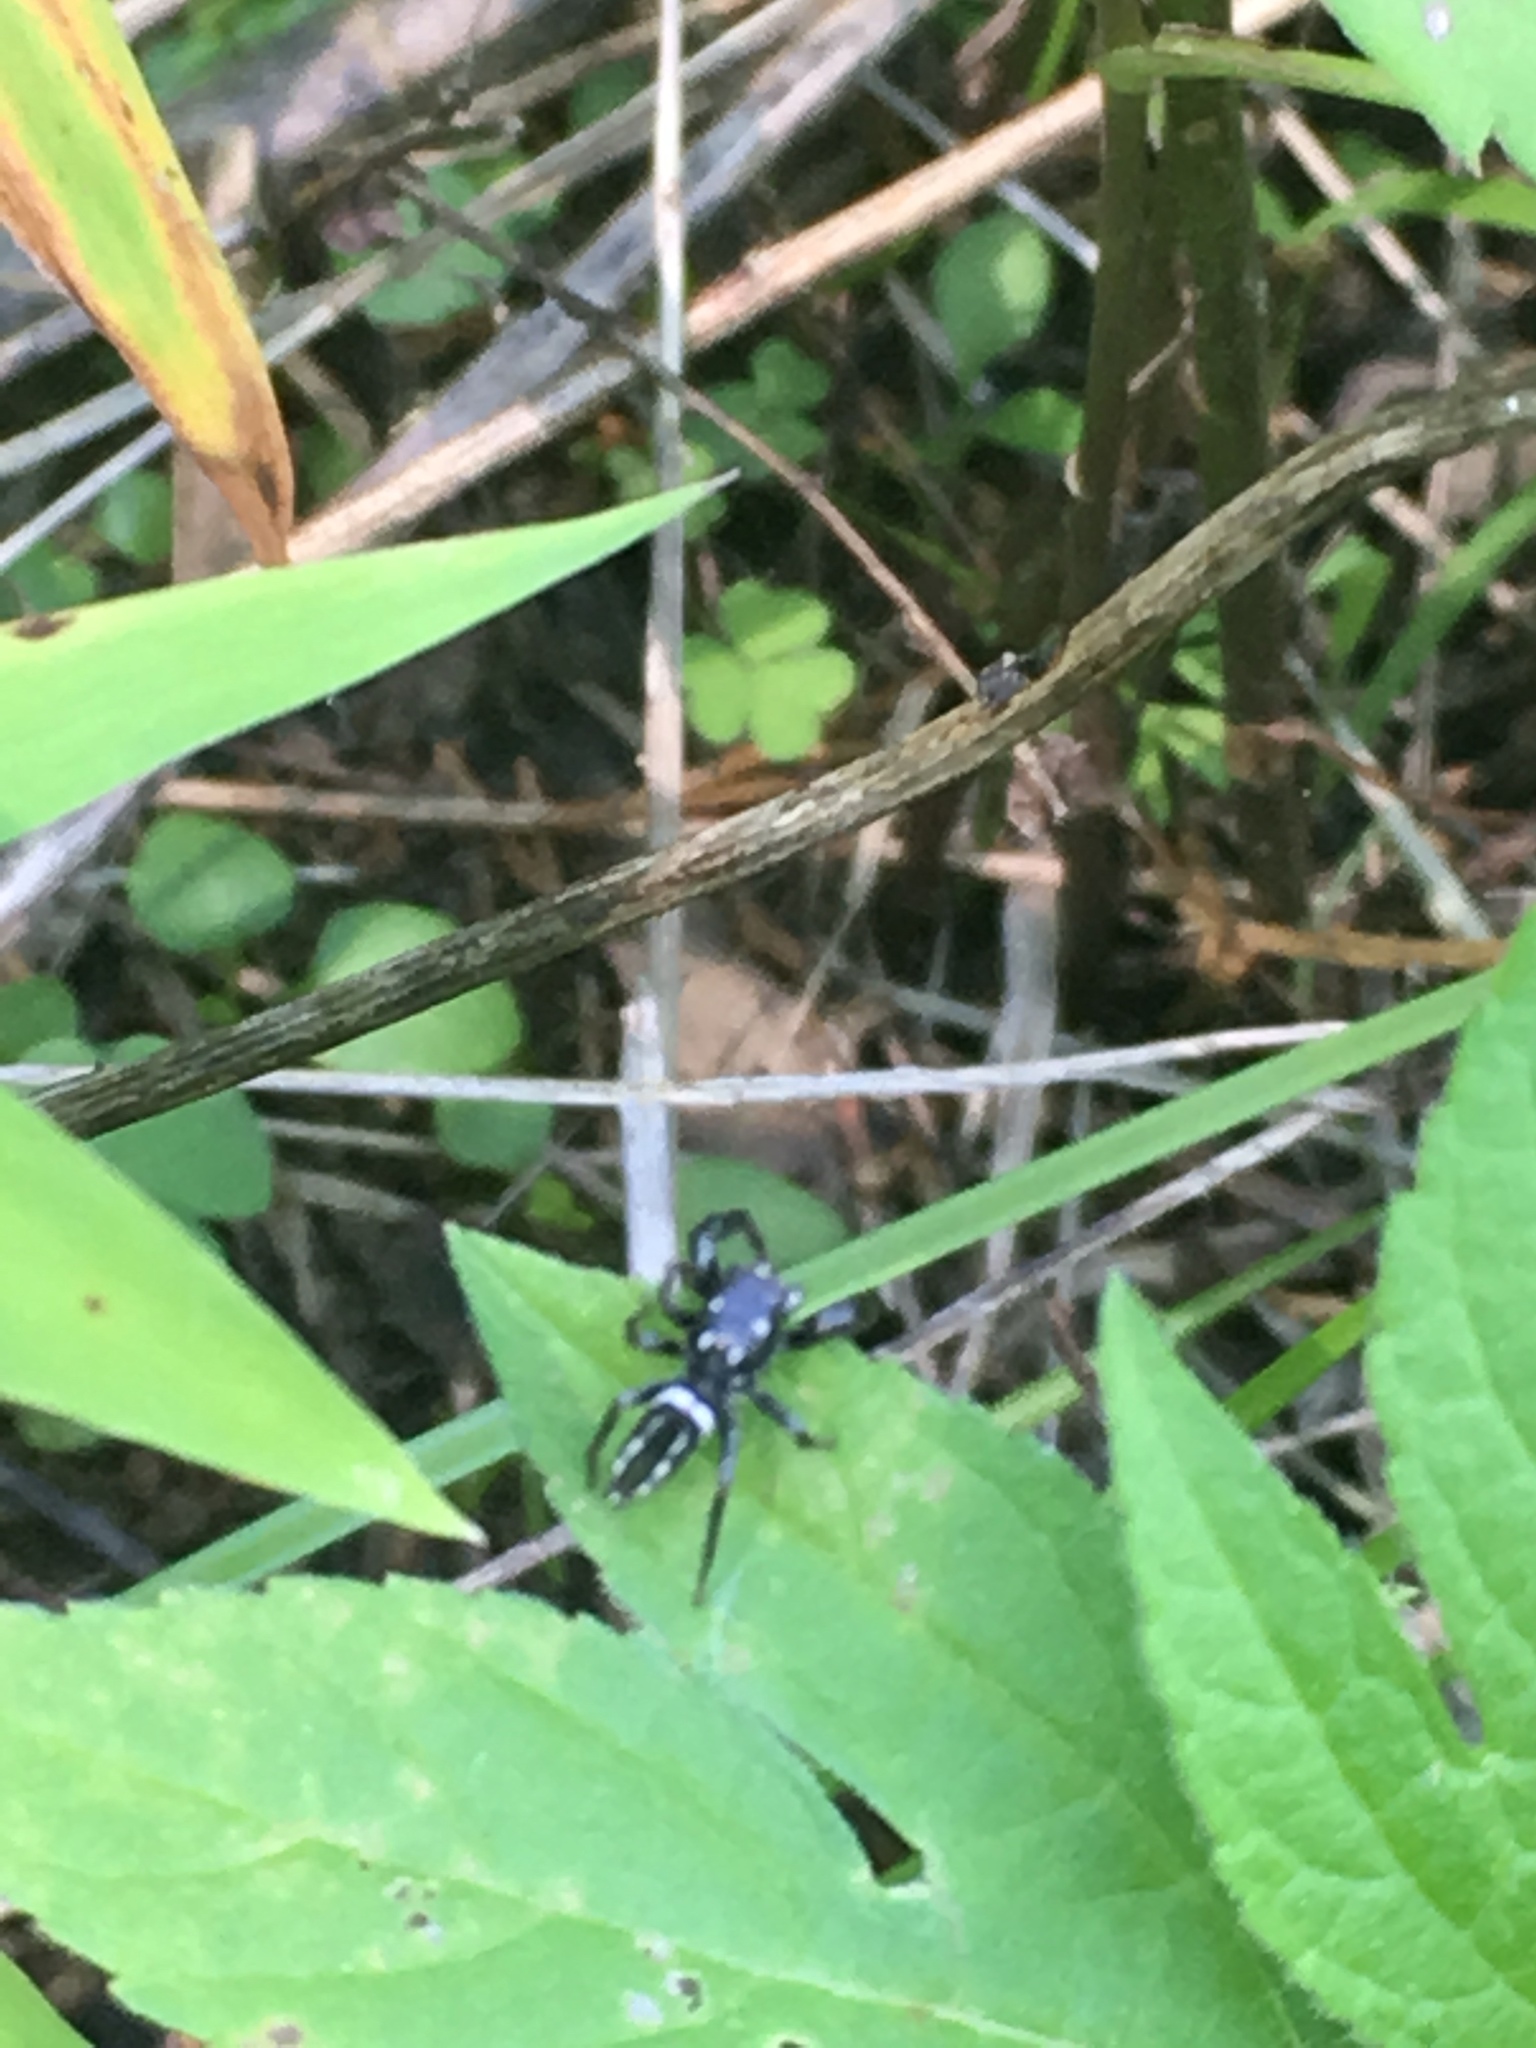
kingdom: Animalia
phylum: Arthropoda
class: Arachnida
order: Araneae
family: Salticidae
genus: Marpissa
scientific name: Marpissa formosa
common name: Short-bellied slender jumping spider
